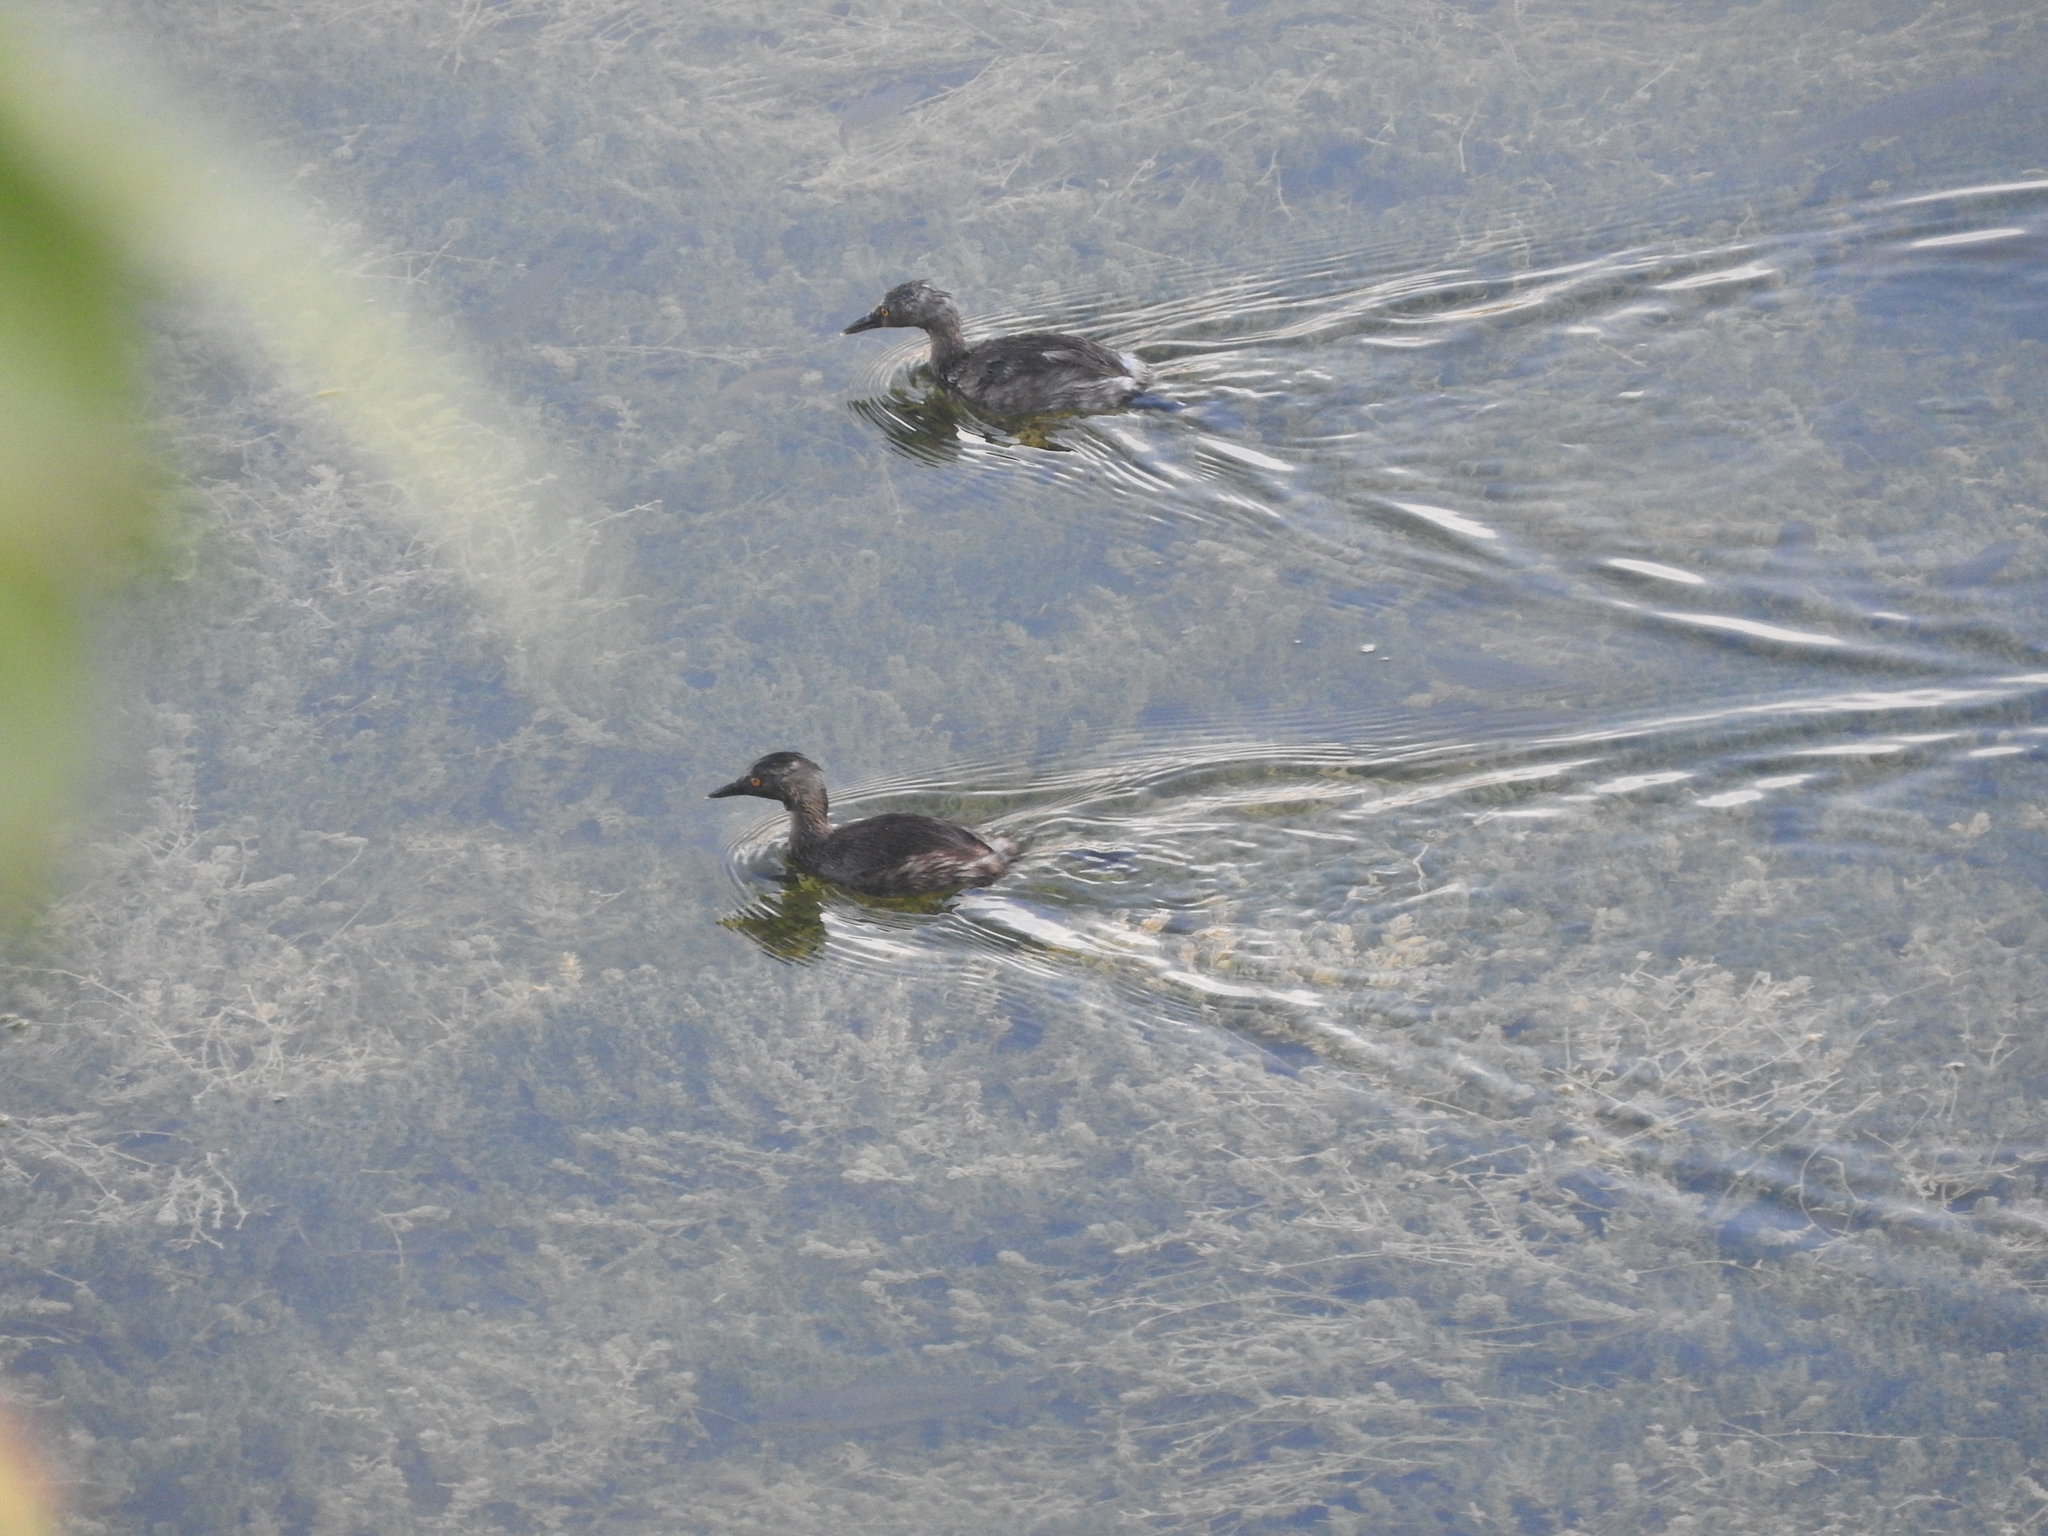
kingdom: Animalia
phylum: Chordata
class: Aves
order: Podicipediformes
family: Podicipedidae
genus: Tachybaptus
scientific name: Tachybaptus dominicus
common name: Least grebe
